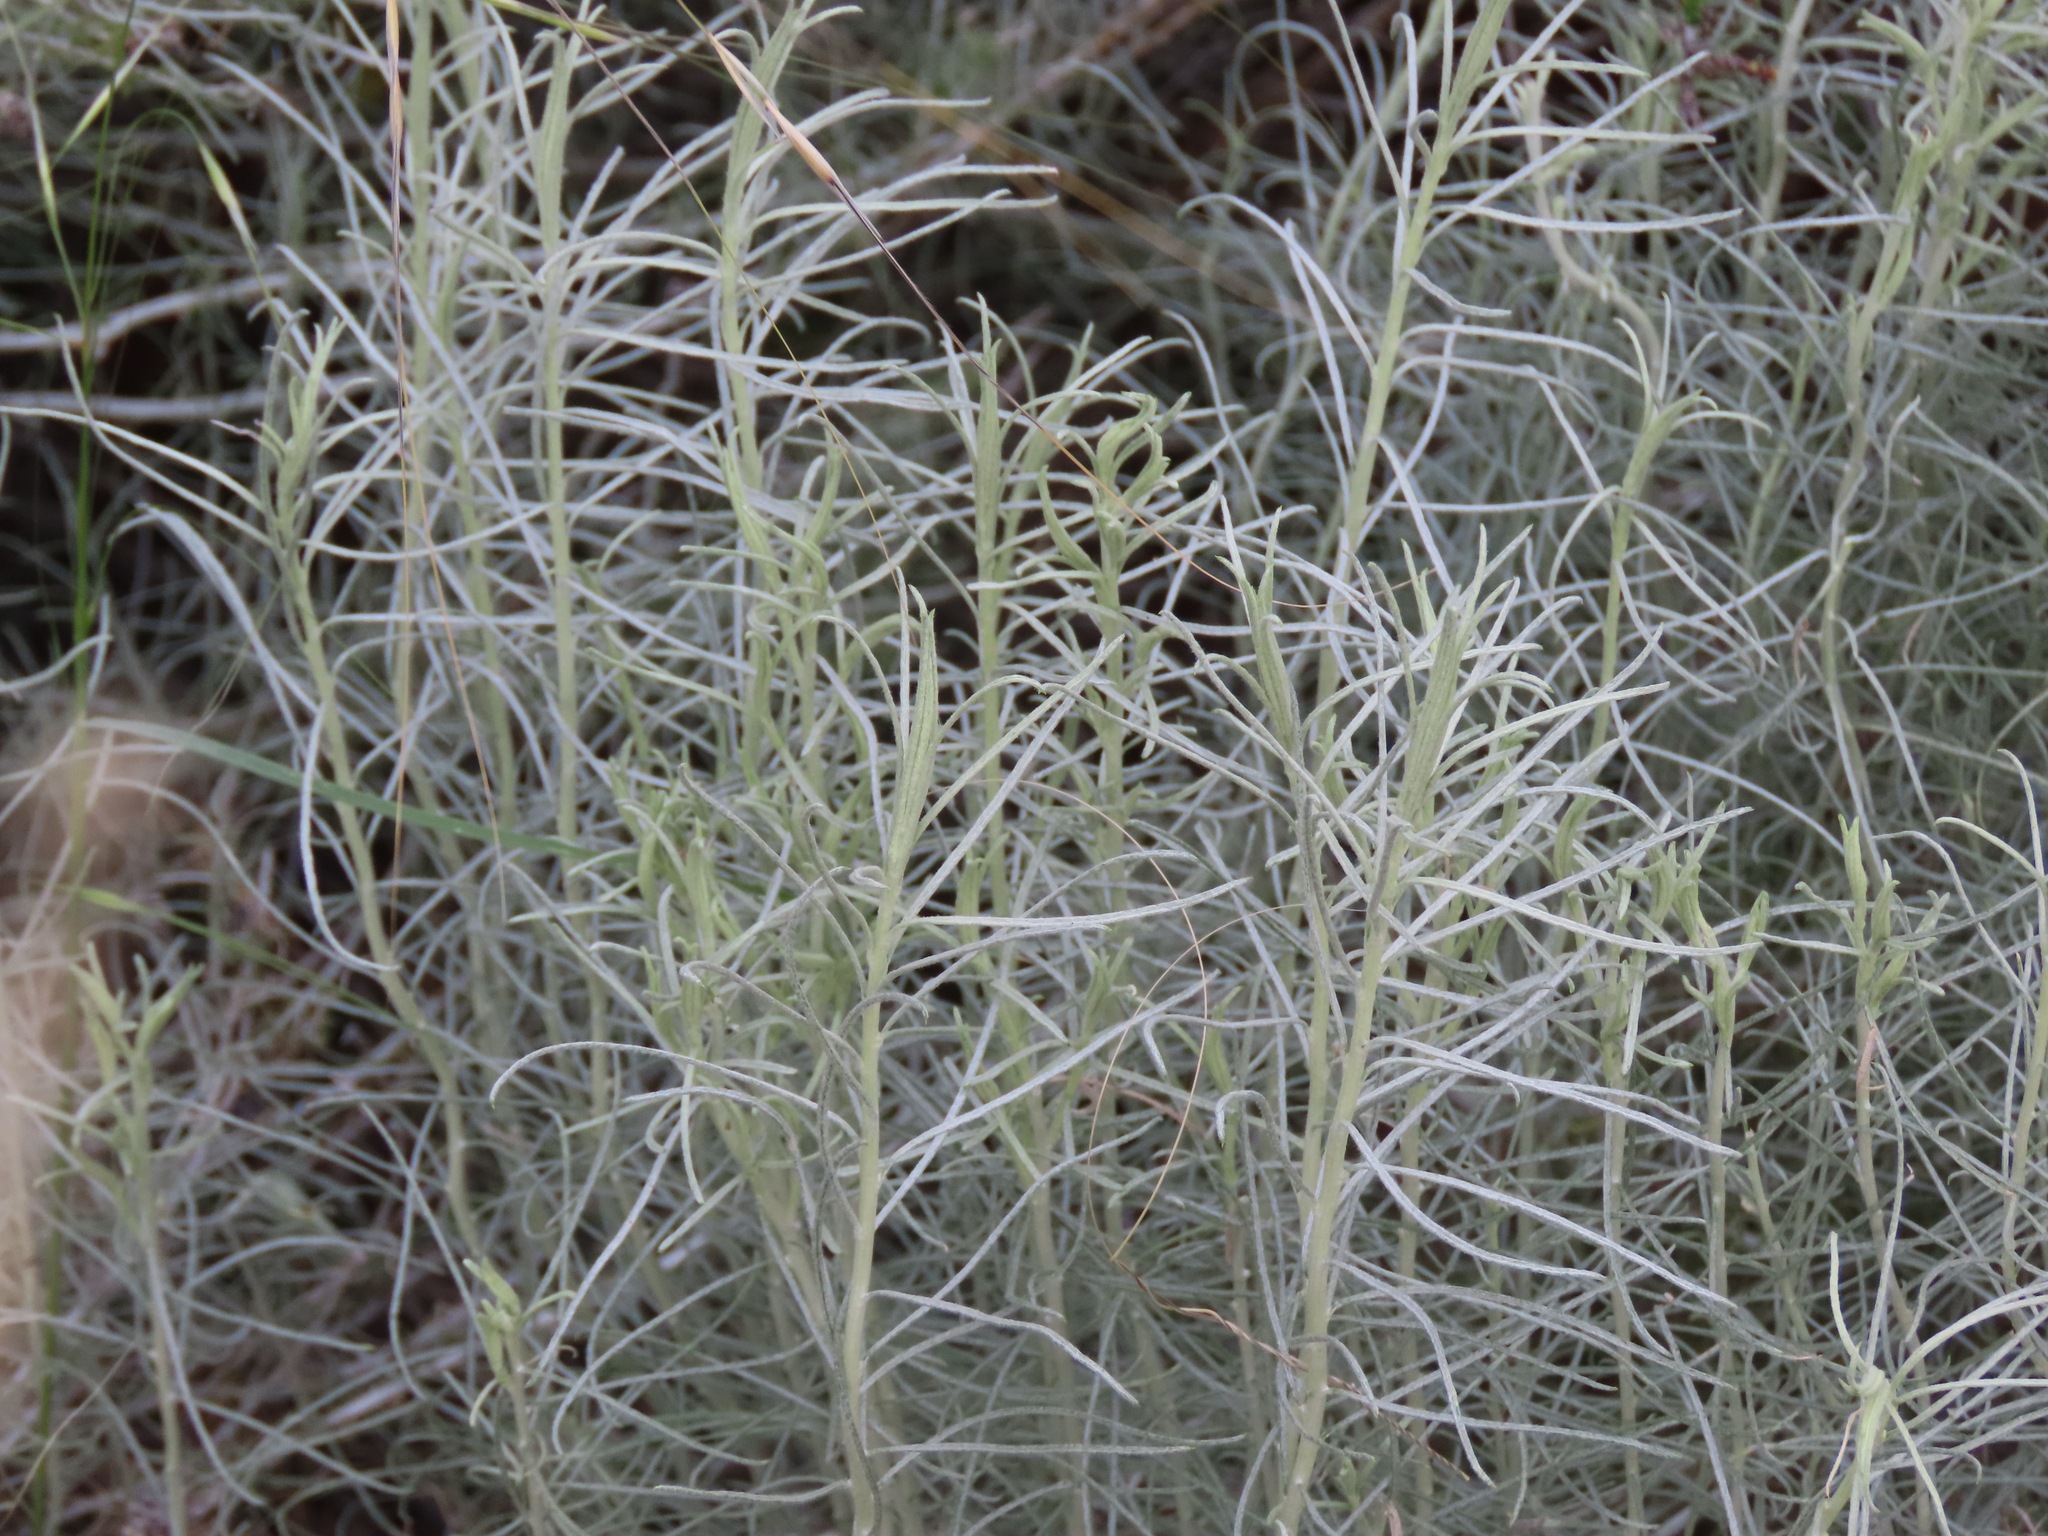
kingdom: Plantae
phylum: Tracheophyta
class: Magnoliopsida
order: Asterales
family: Asteraceae
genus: Ericameria
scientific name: Ericameria nauseosa
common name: Rubber rabbitbrush
